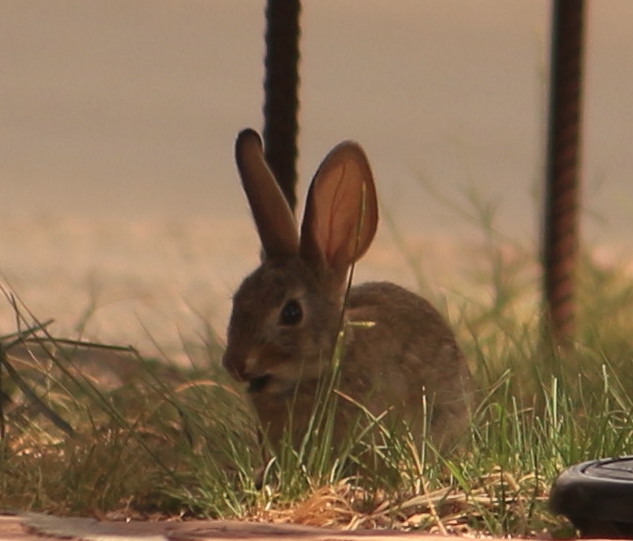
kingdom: Animalia
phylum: Chordata
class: Mammalia
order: Lagomorpha
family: Leporidae
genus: Sylvilagus
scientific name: Sylvilagus audubonii
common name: Desert cottontail
